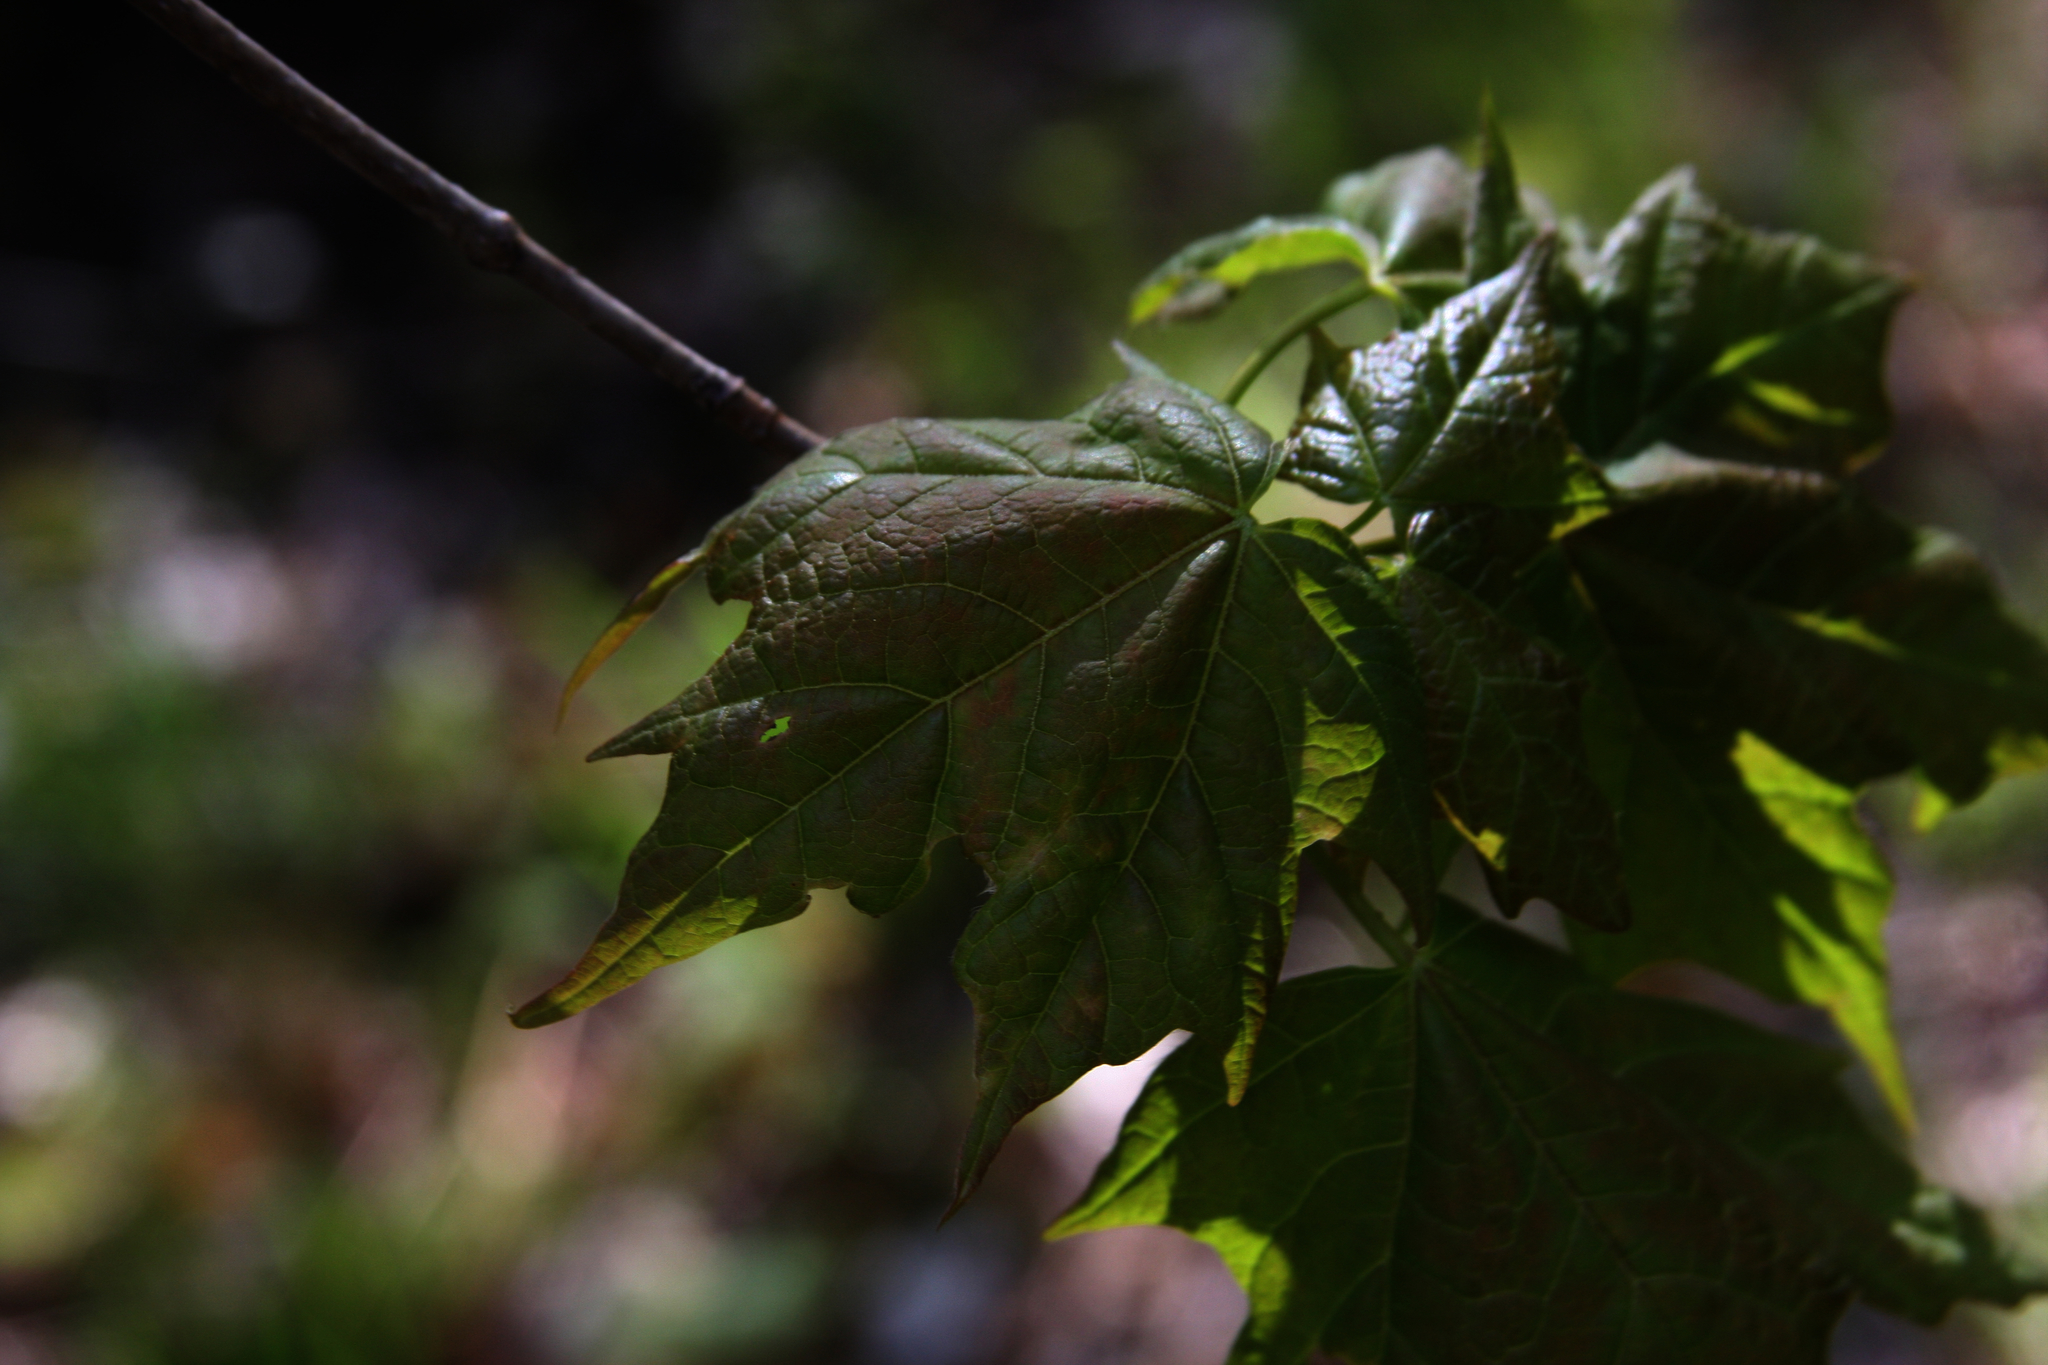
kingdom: Plantae
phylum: Tracheophyta
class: Magnoliopsida
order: Sapindales
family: Sapindaceae
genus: Acer
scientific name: Acer saccharum
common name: Sugar maple
